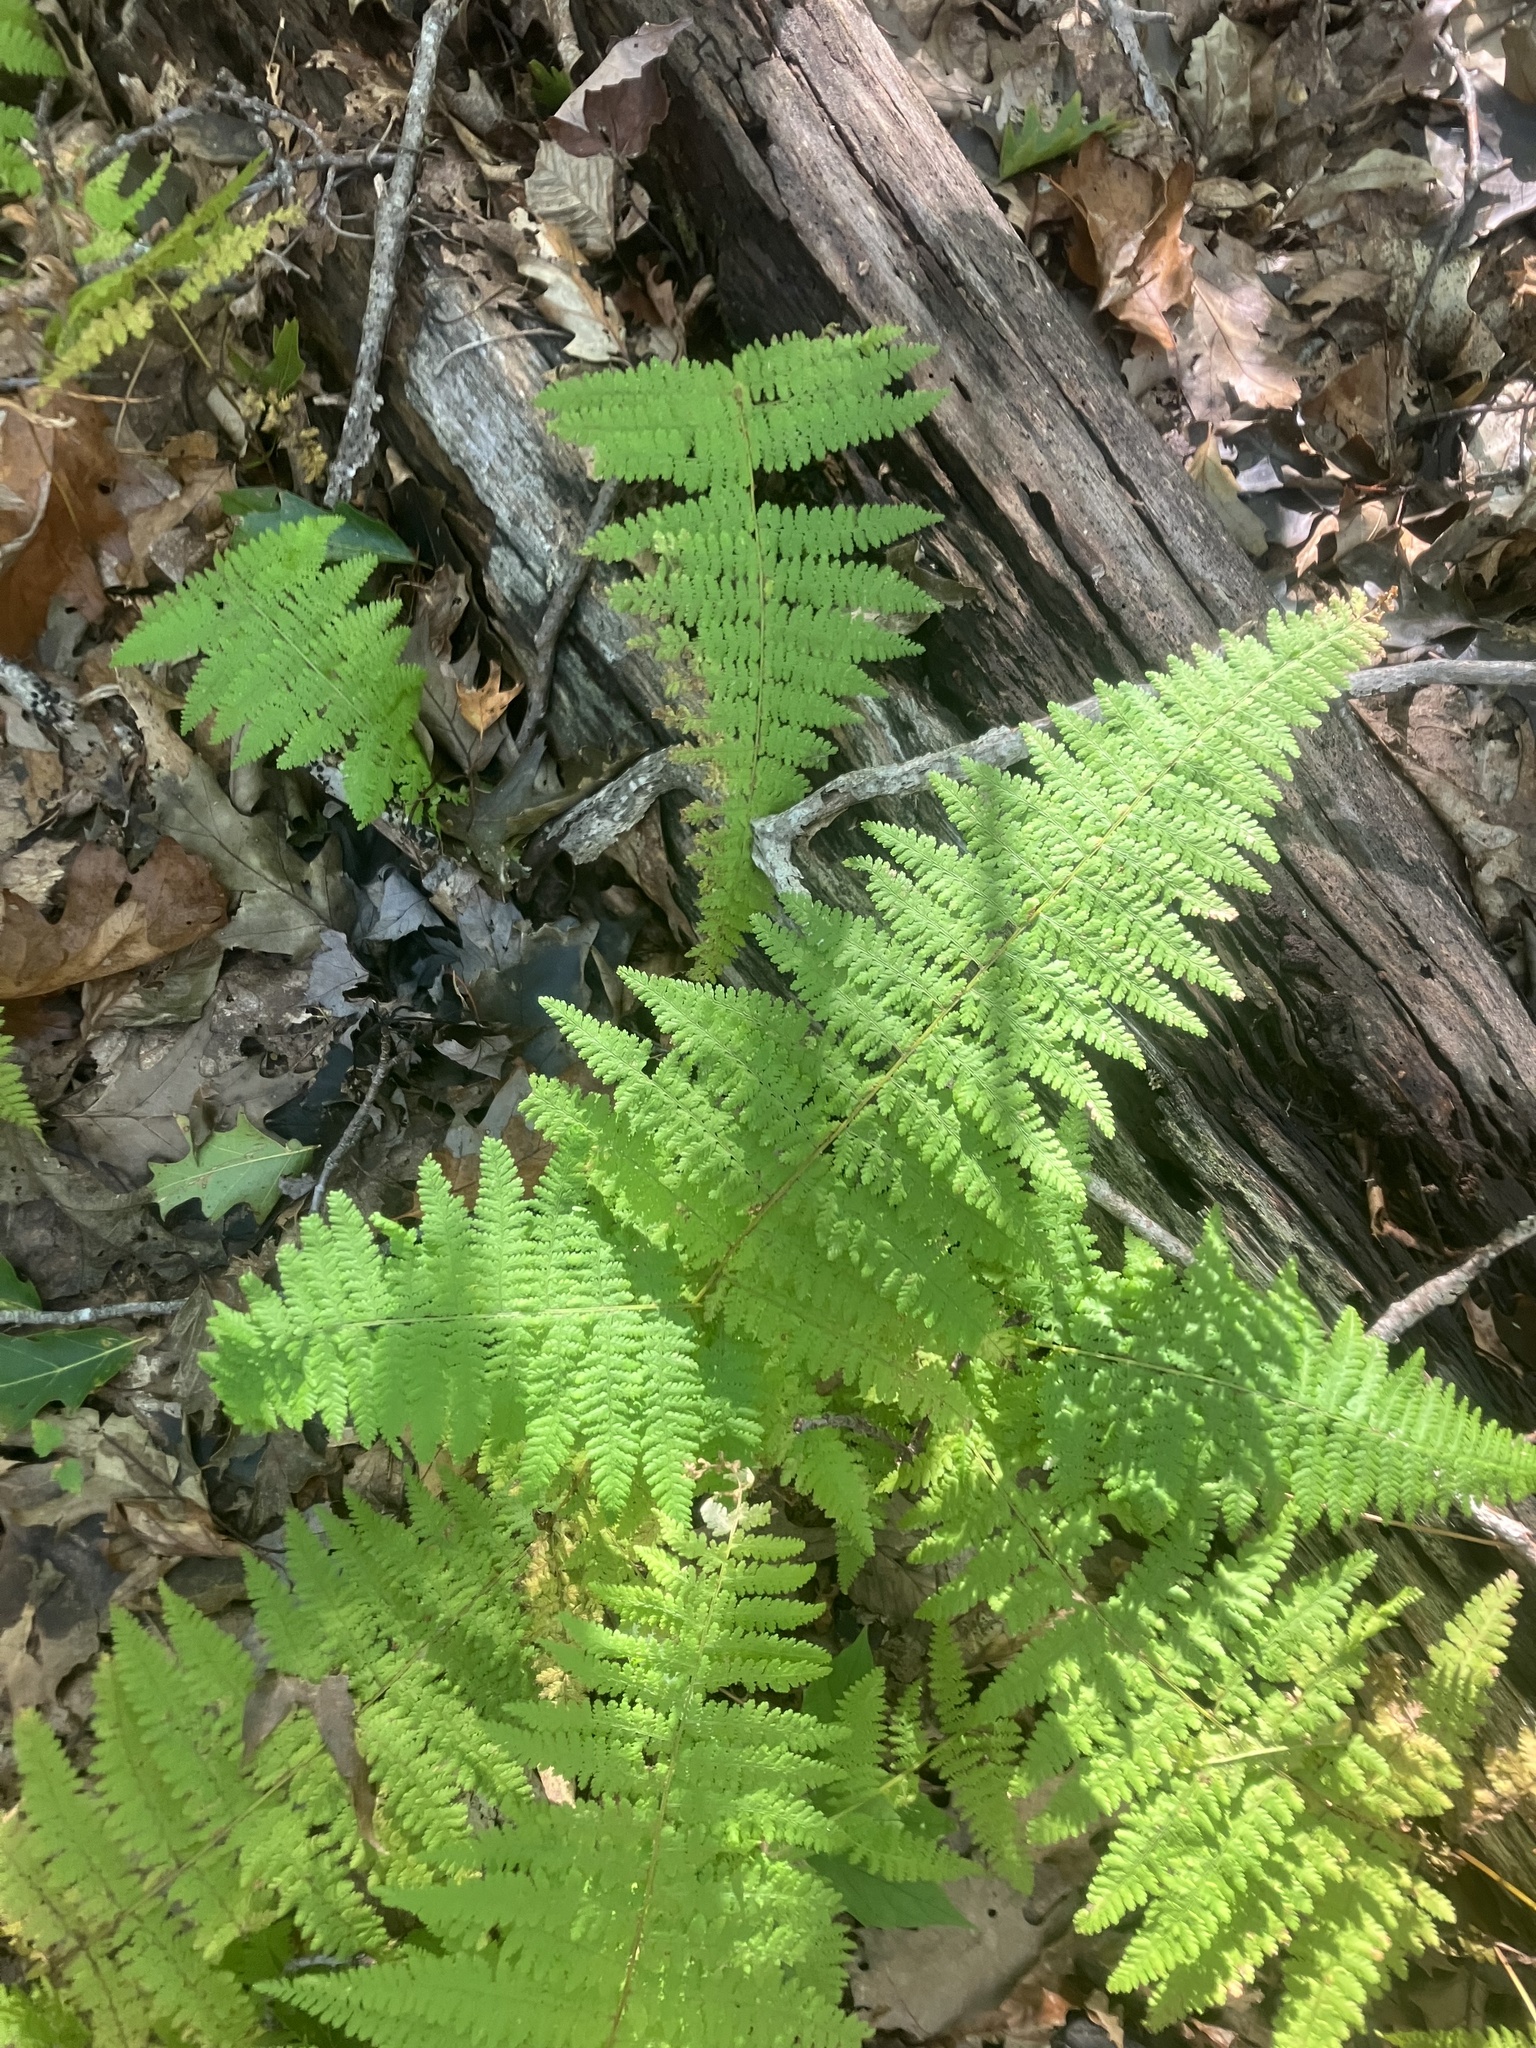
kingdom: Plantae
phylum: Tracheophyta
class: Polypodiopsida
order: Polypodiales
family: Dennstaedtiaceae
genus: Sitobolium
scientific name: Sitobolium punctilobum
